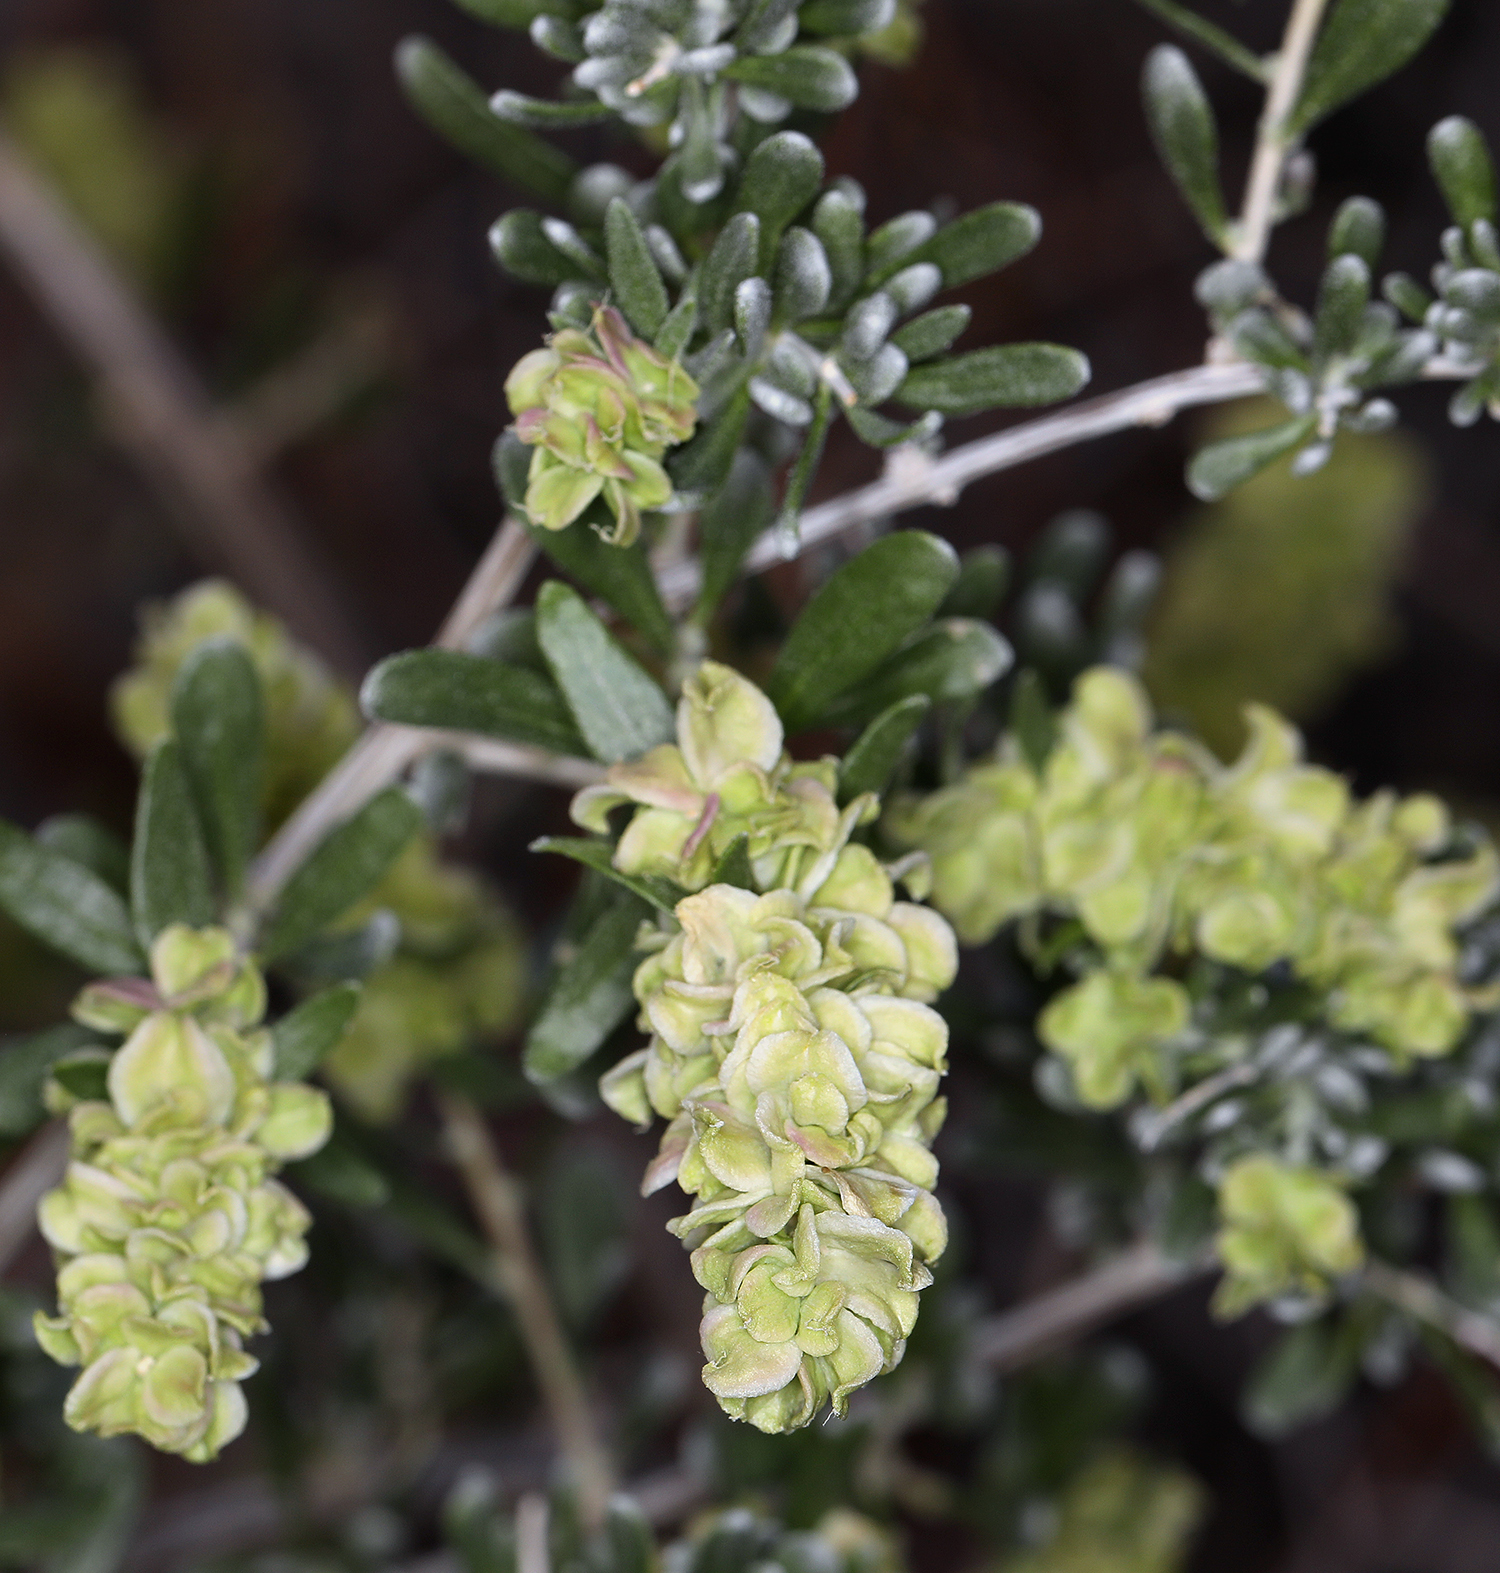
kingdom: Plantae
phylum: Tracheophyta
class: Magnoliopsida
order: Caryophyllales
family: Amaranthaceae
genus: Grayia
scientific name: Grayia spinosa
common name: Spiny hopsage
